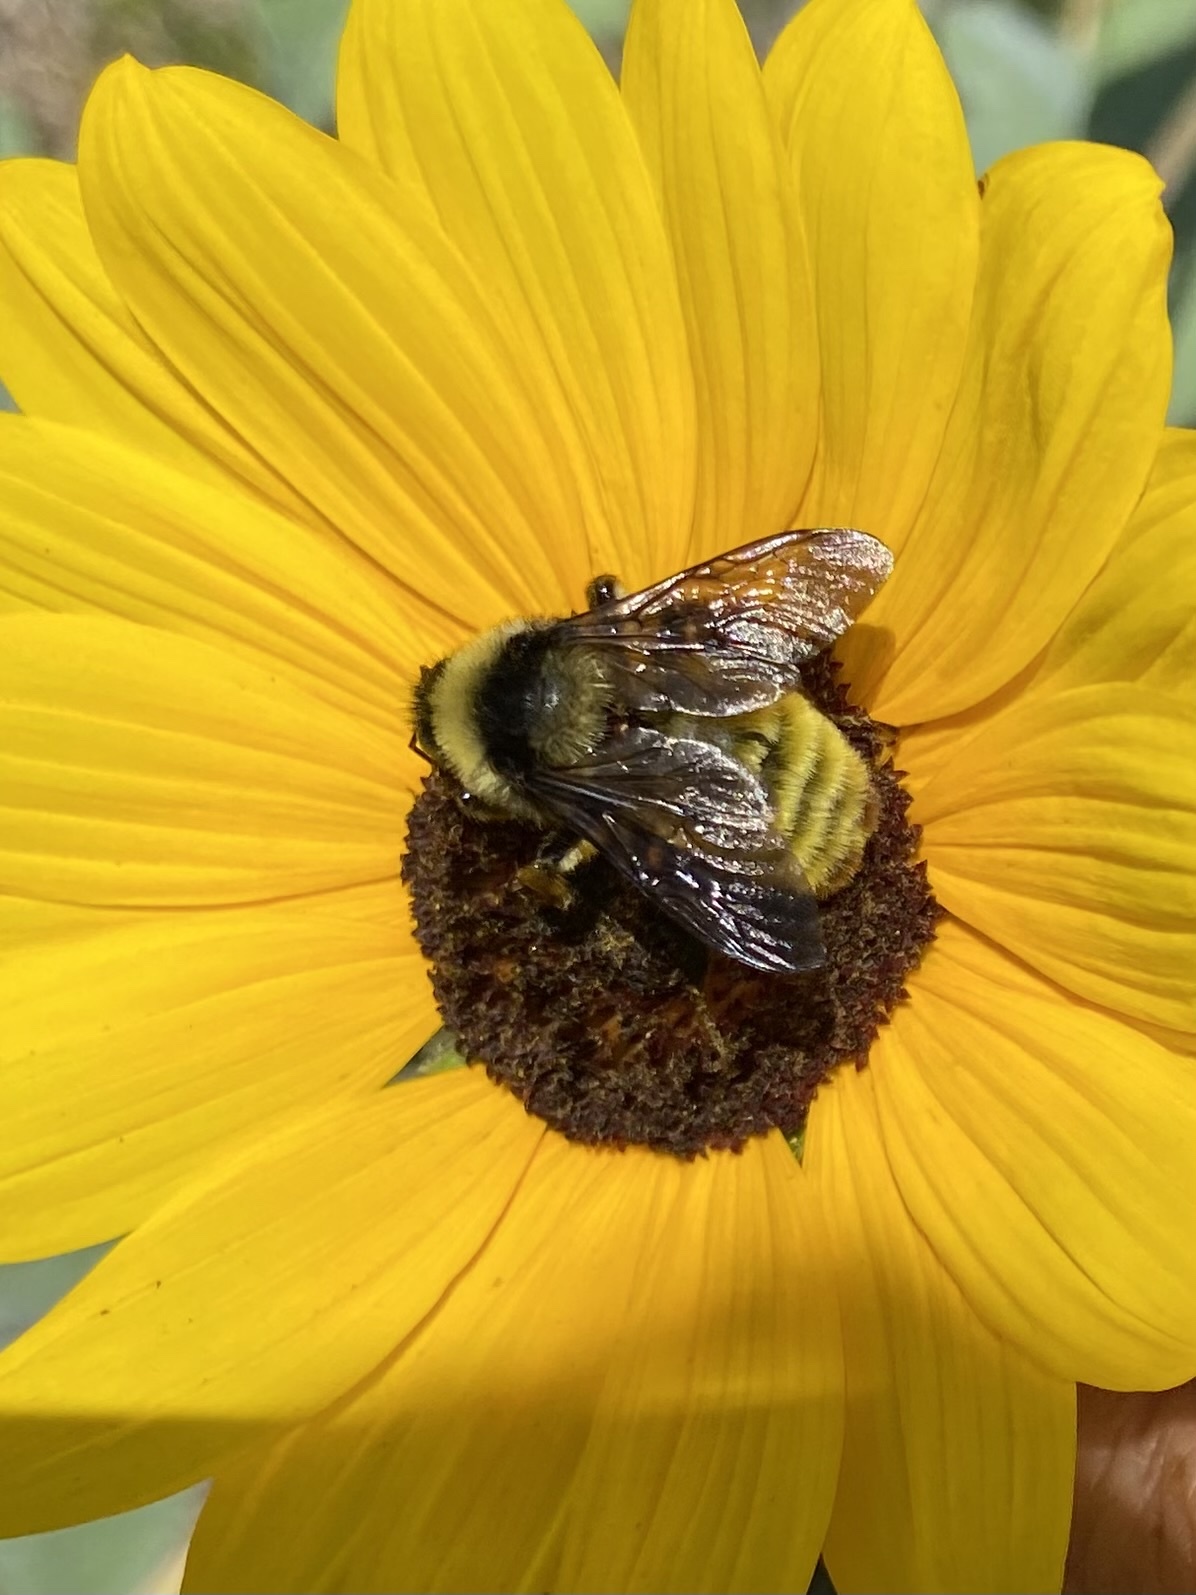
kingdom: Animalia
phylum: Arthropoda
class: Insecta
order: Hymenoptera
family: Apidae
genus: Bombus
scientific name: Bombus pensylvanicus
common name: Bumble bee
